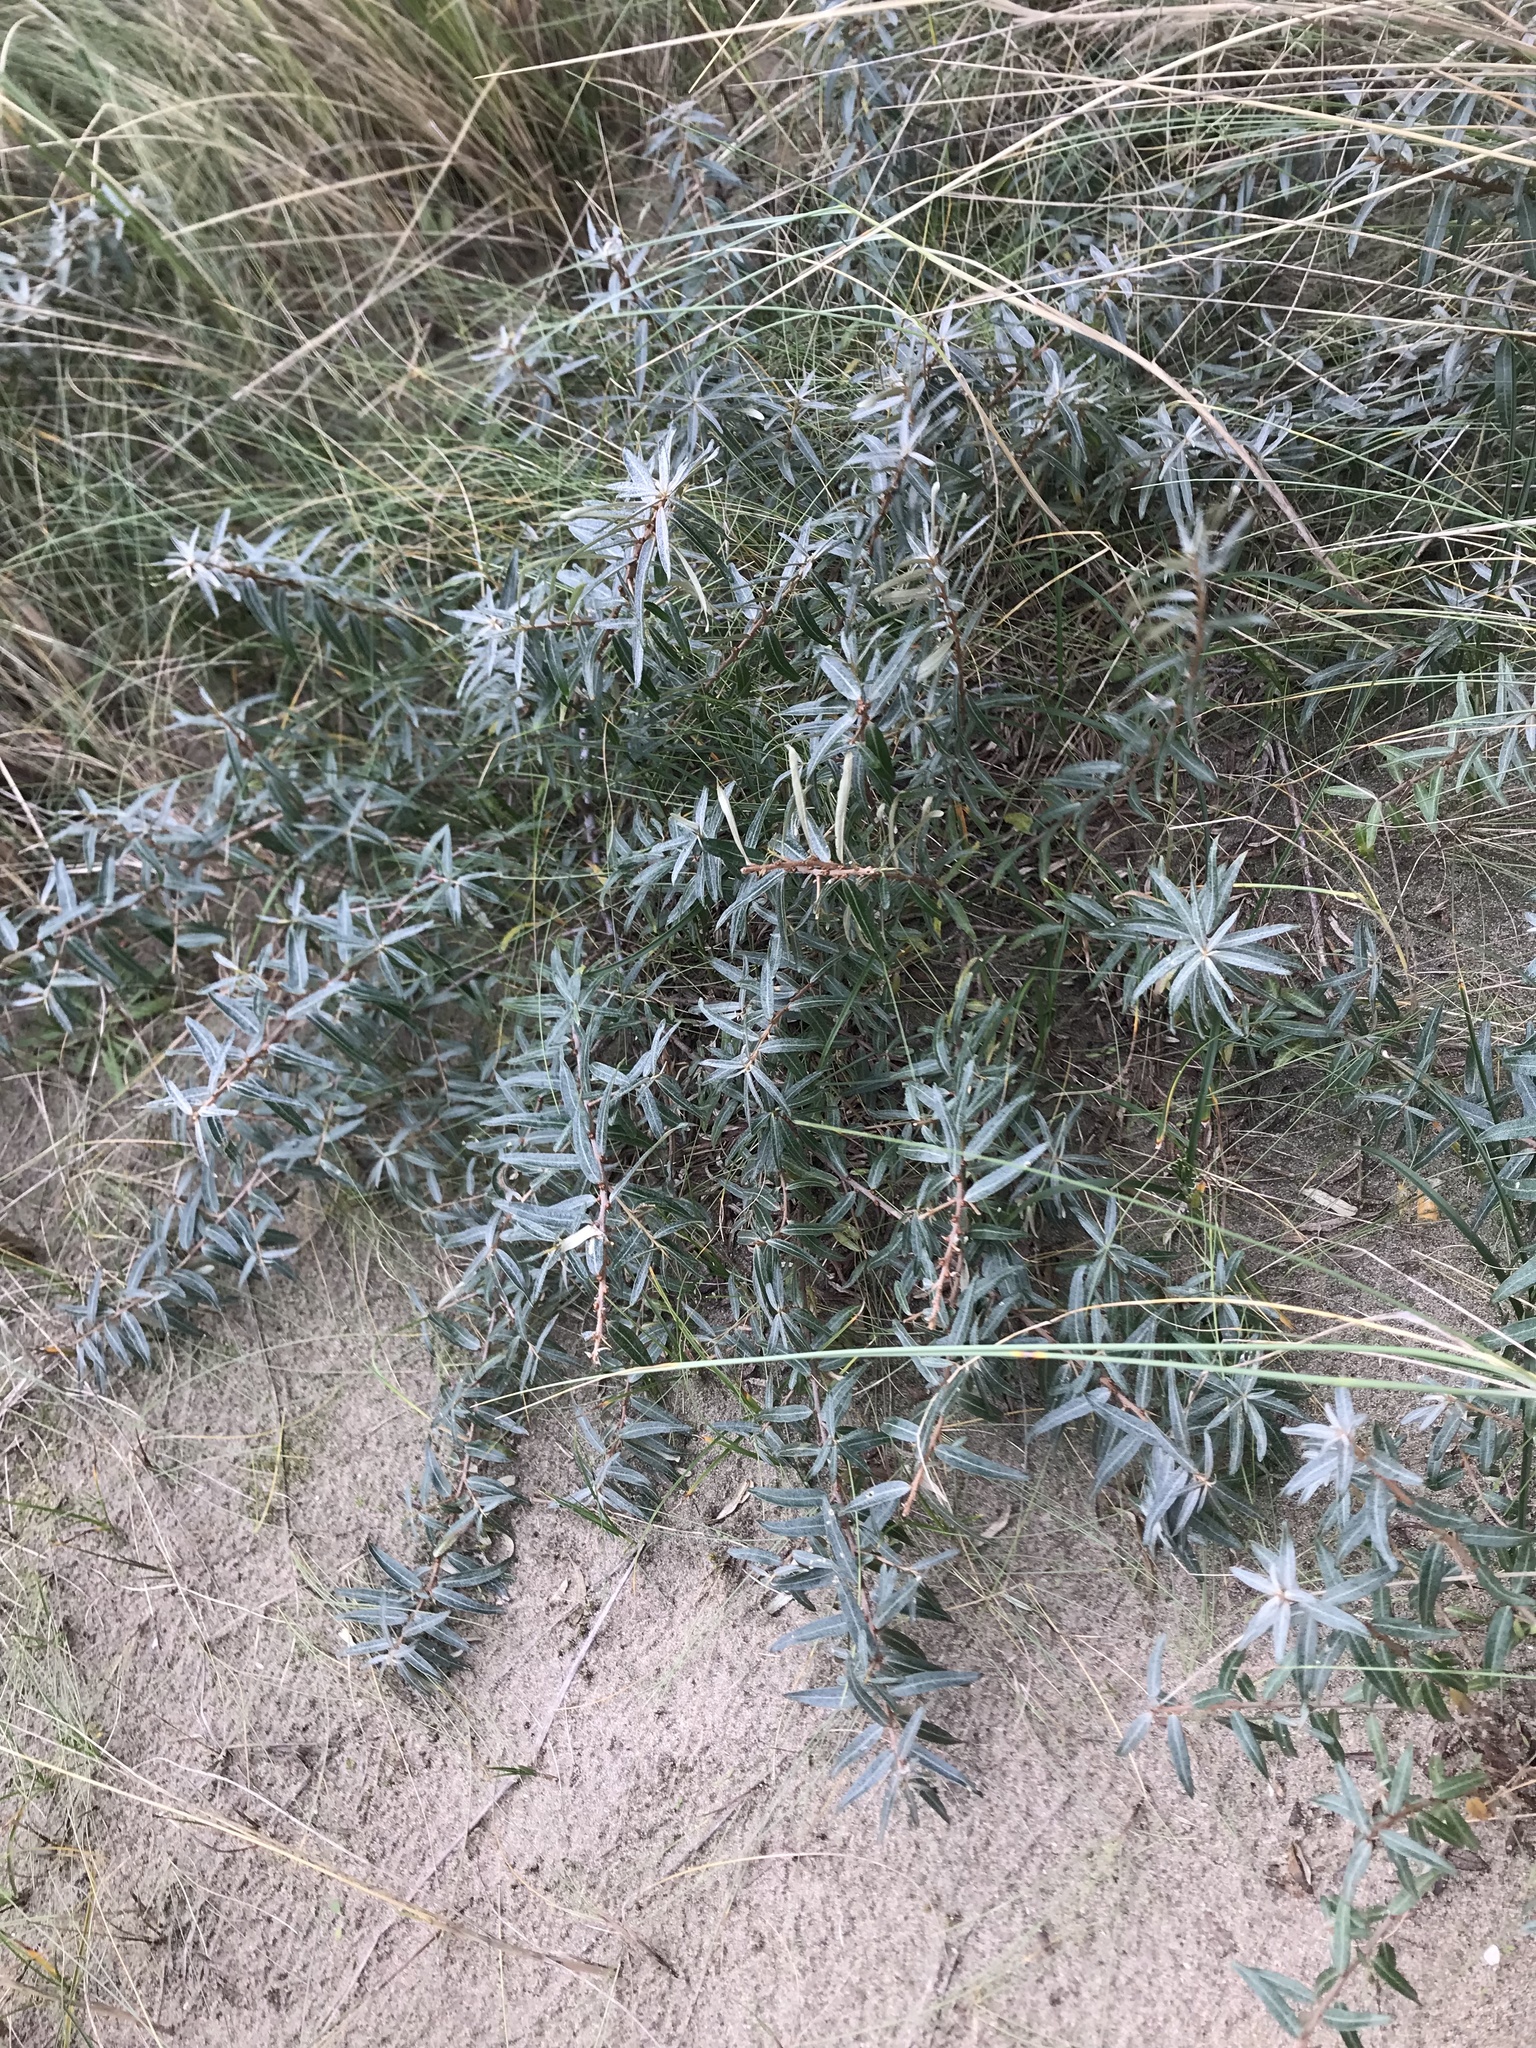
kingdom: Plantae
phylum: Tracheophyta
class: Magnoliopsida
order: Rosales
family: Elaeagnaceae
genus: Hippophae
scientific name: Hippophae rhamnoides
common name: Sea-buckthorn
